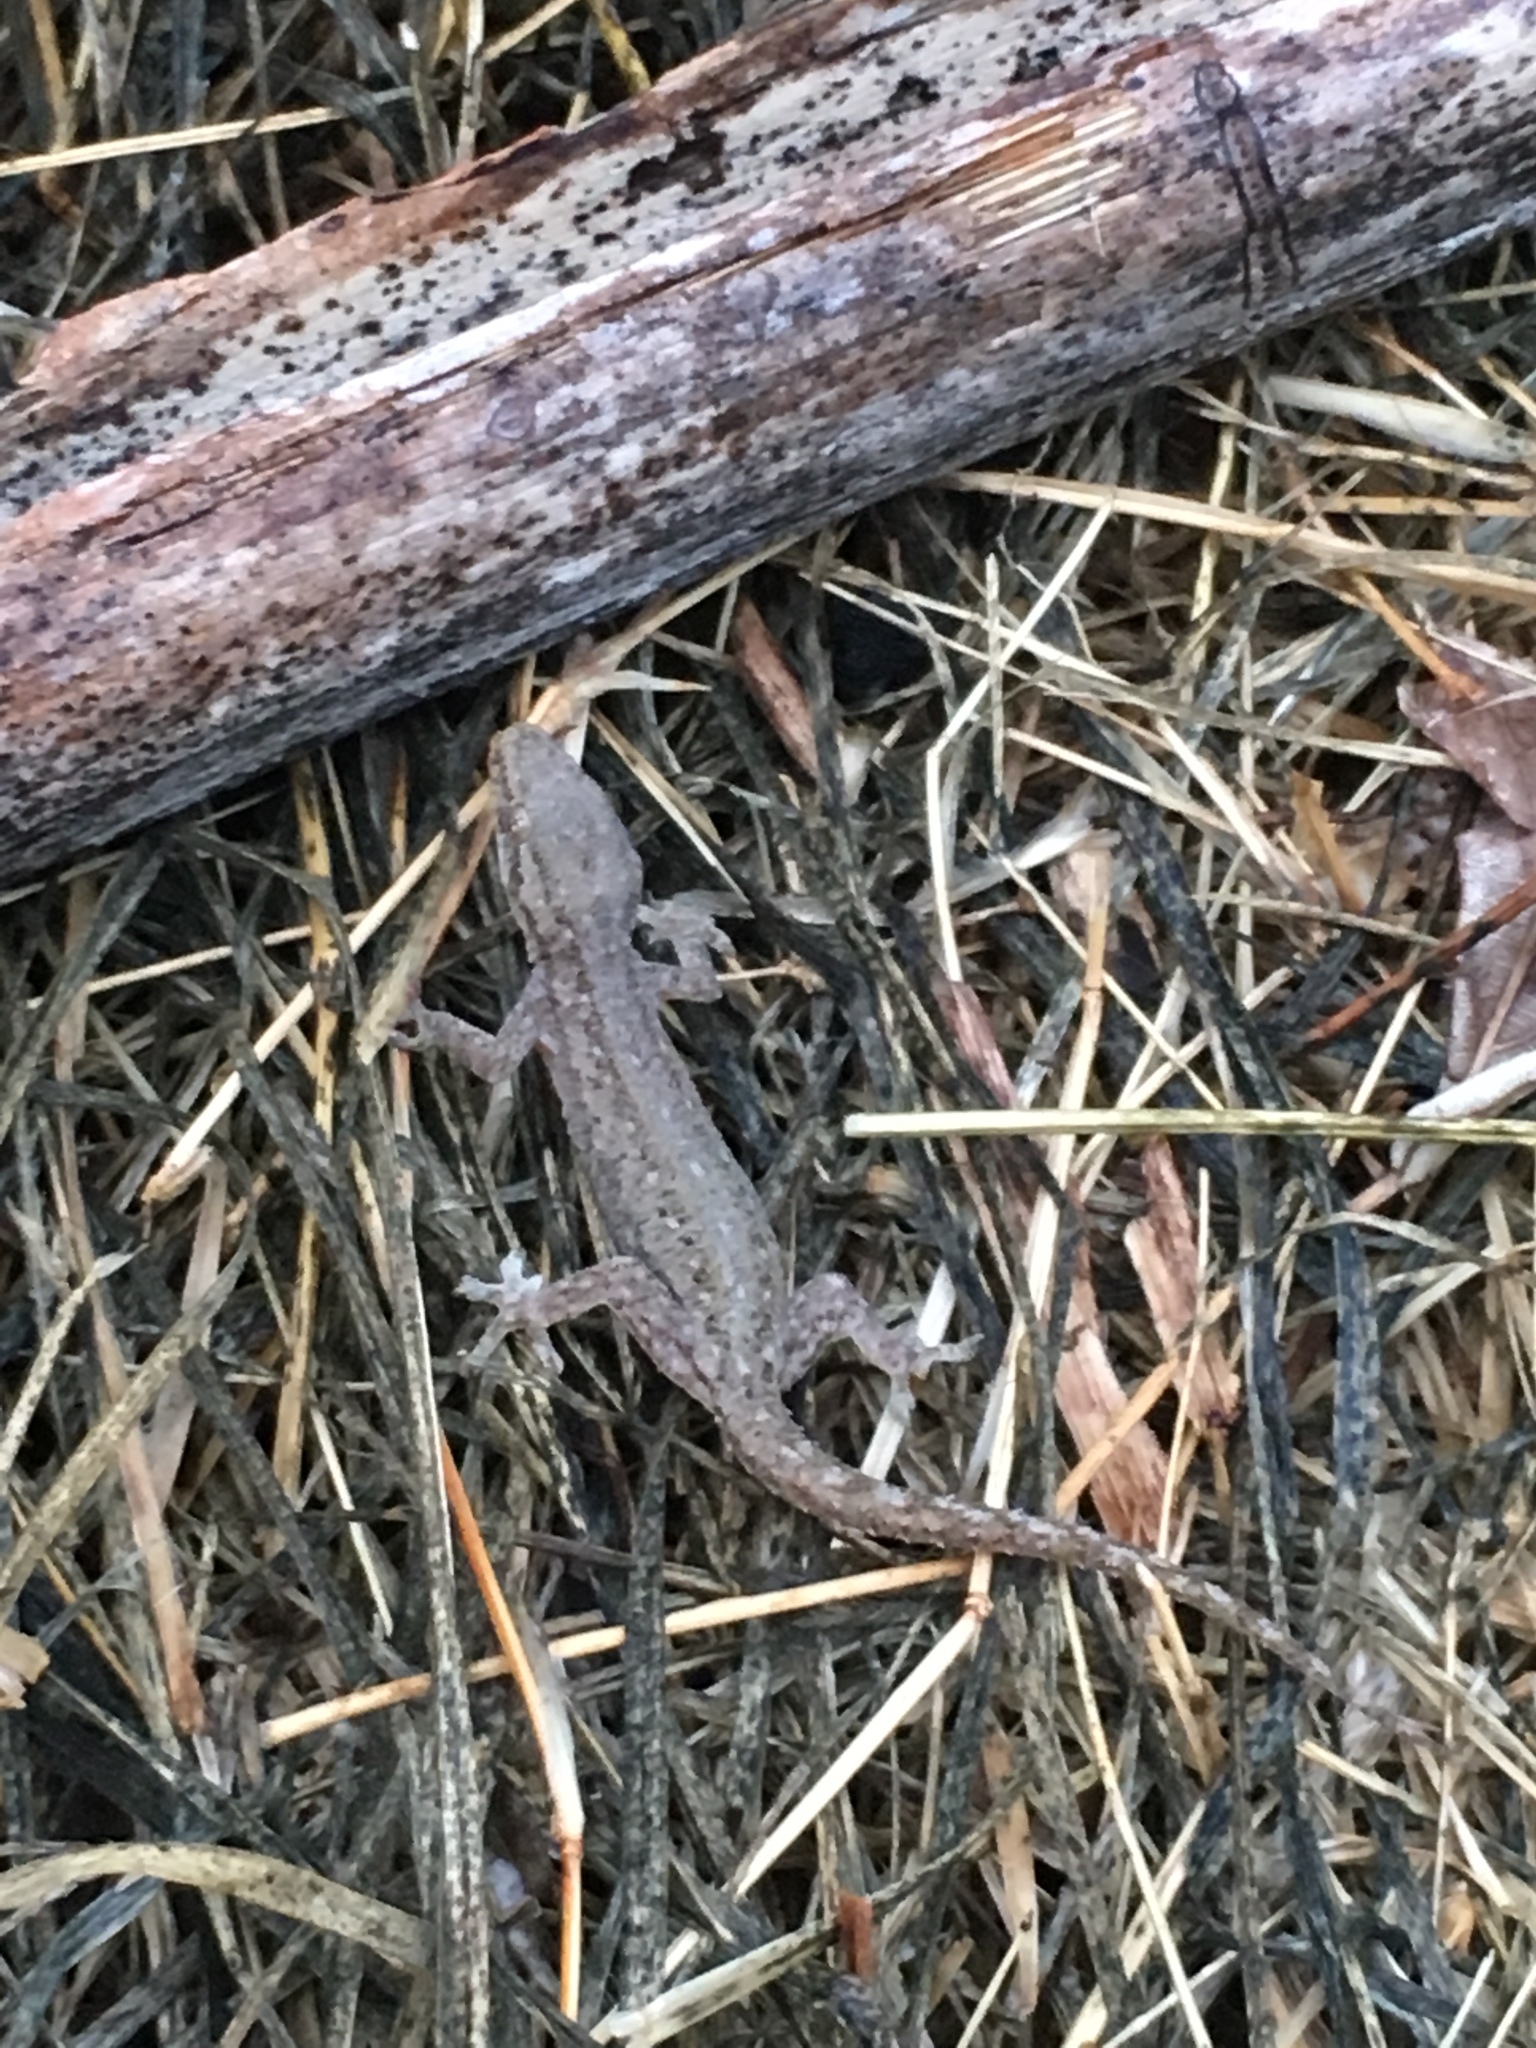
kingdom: Animalia
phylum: Chordata
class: Squamata
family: Gekkonidae
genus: Hemidactylus
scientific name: Hemidactylus frenatus
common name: Common house gecko
